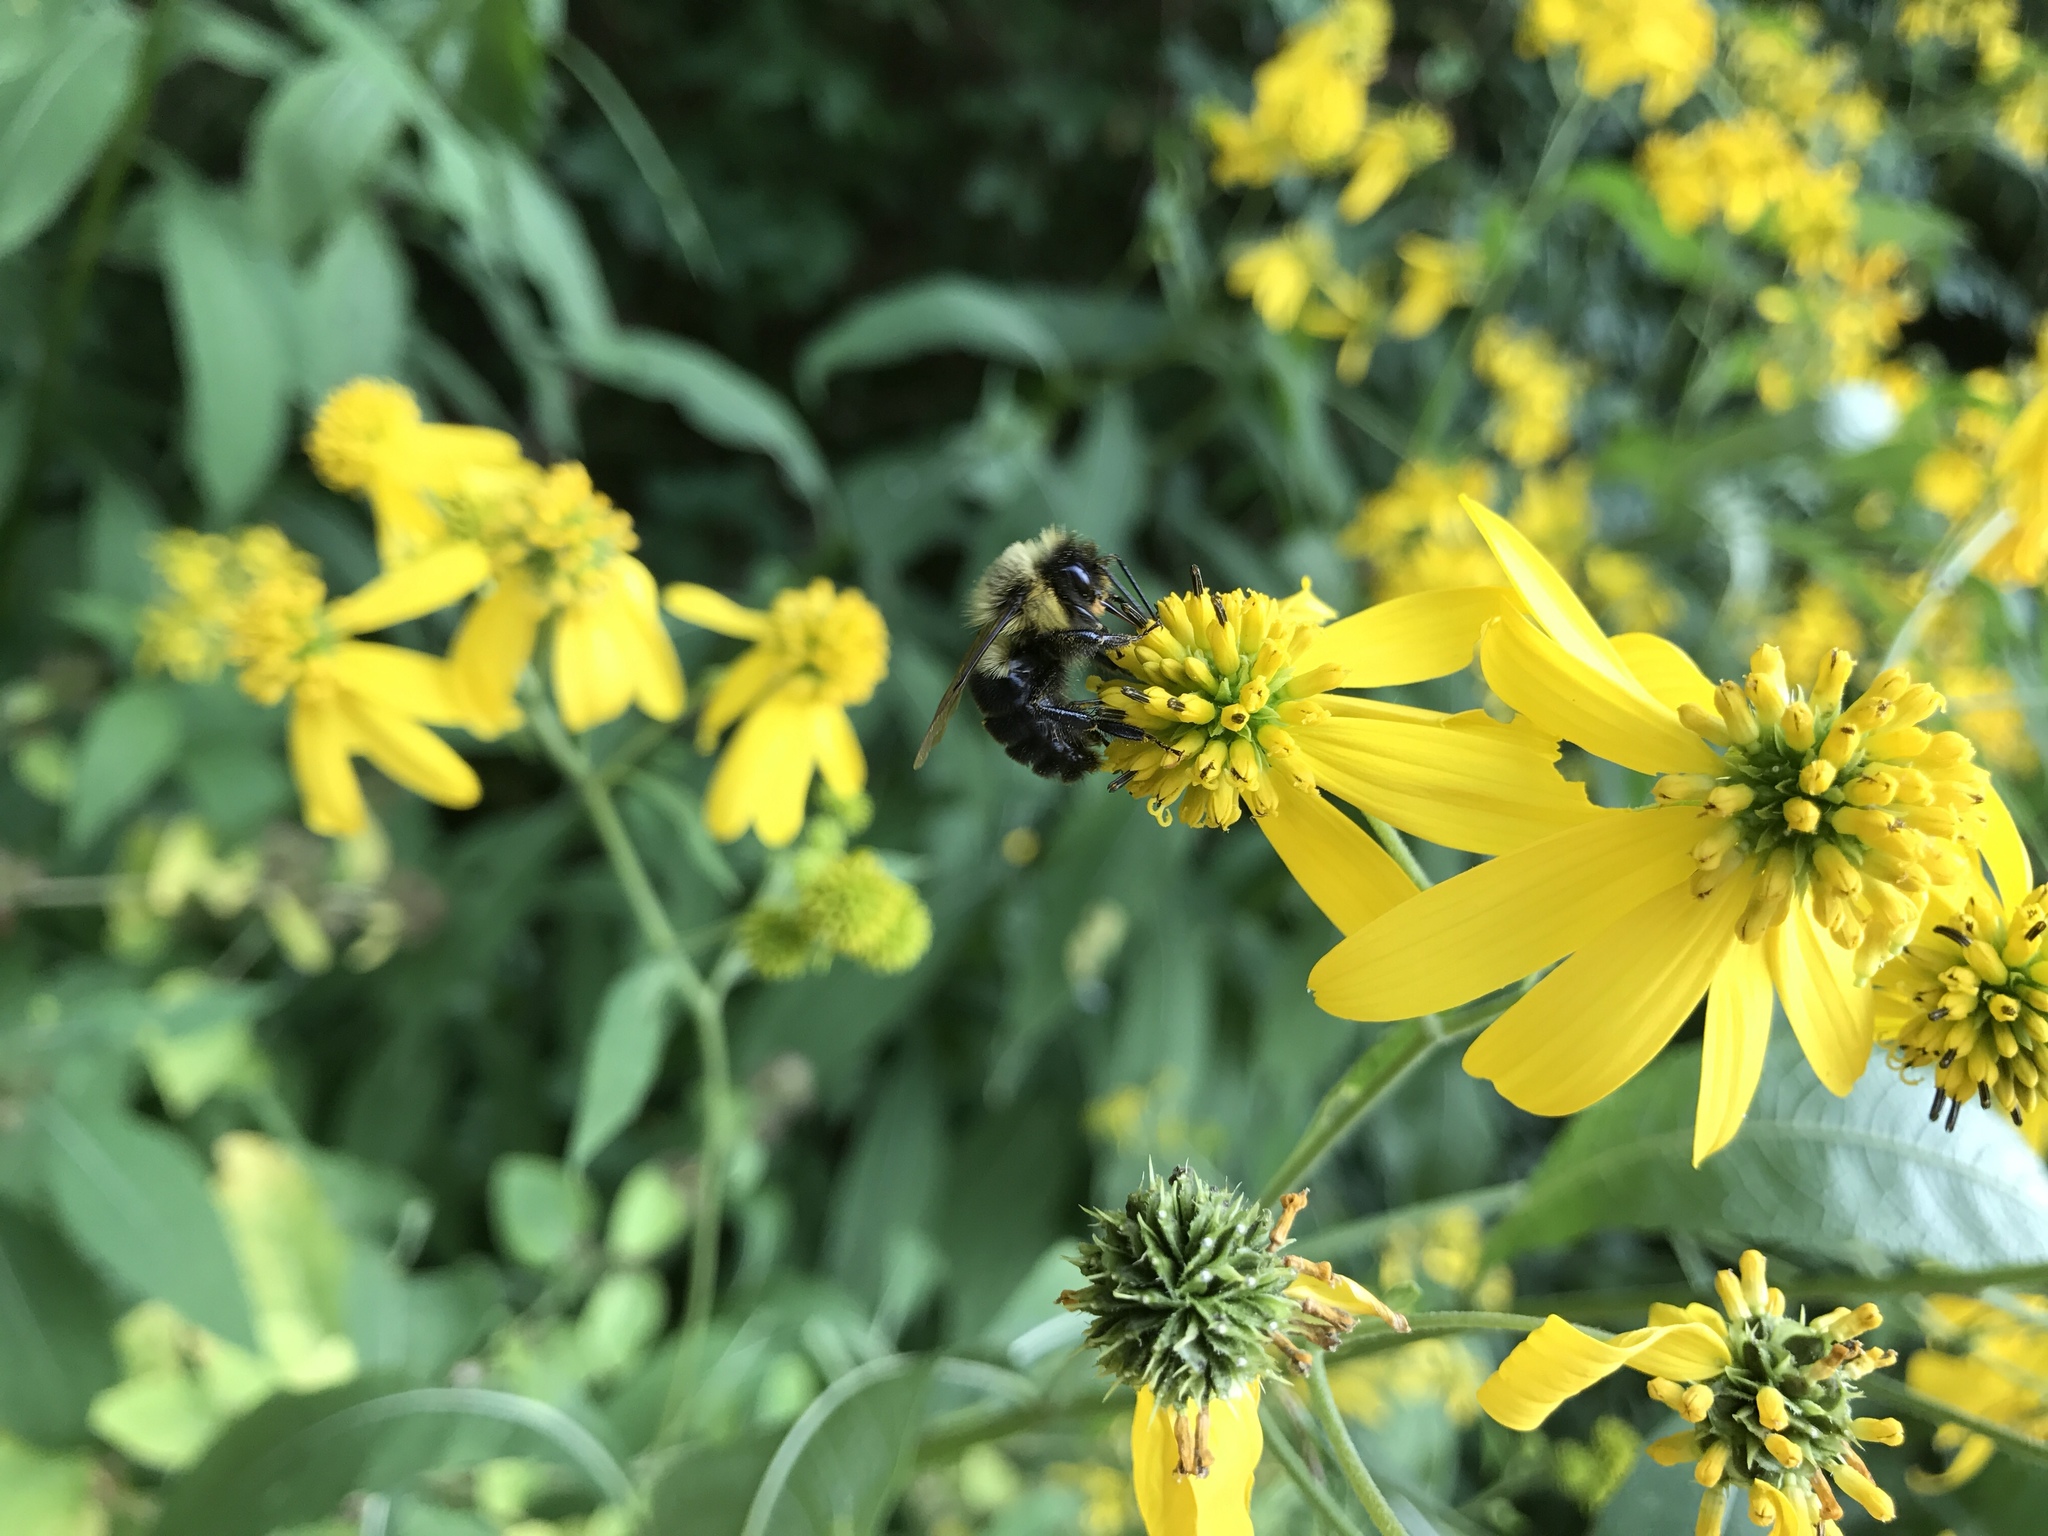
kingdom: Animalia
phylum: Arthropoda
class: Insecta
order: Hymenoptera
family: Apidae
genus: Bombus
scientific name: Bombus impatiens
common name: Common eastern bumble bee
